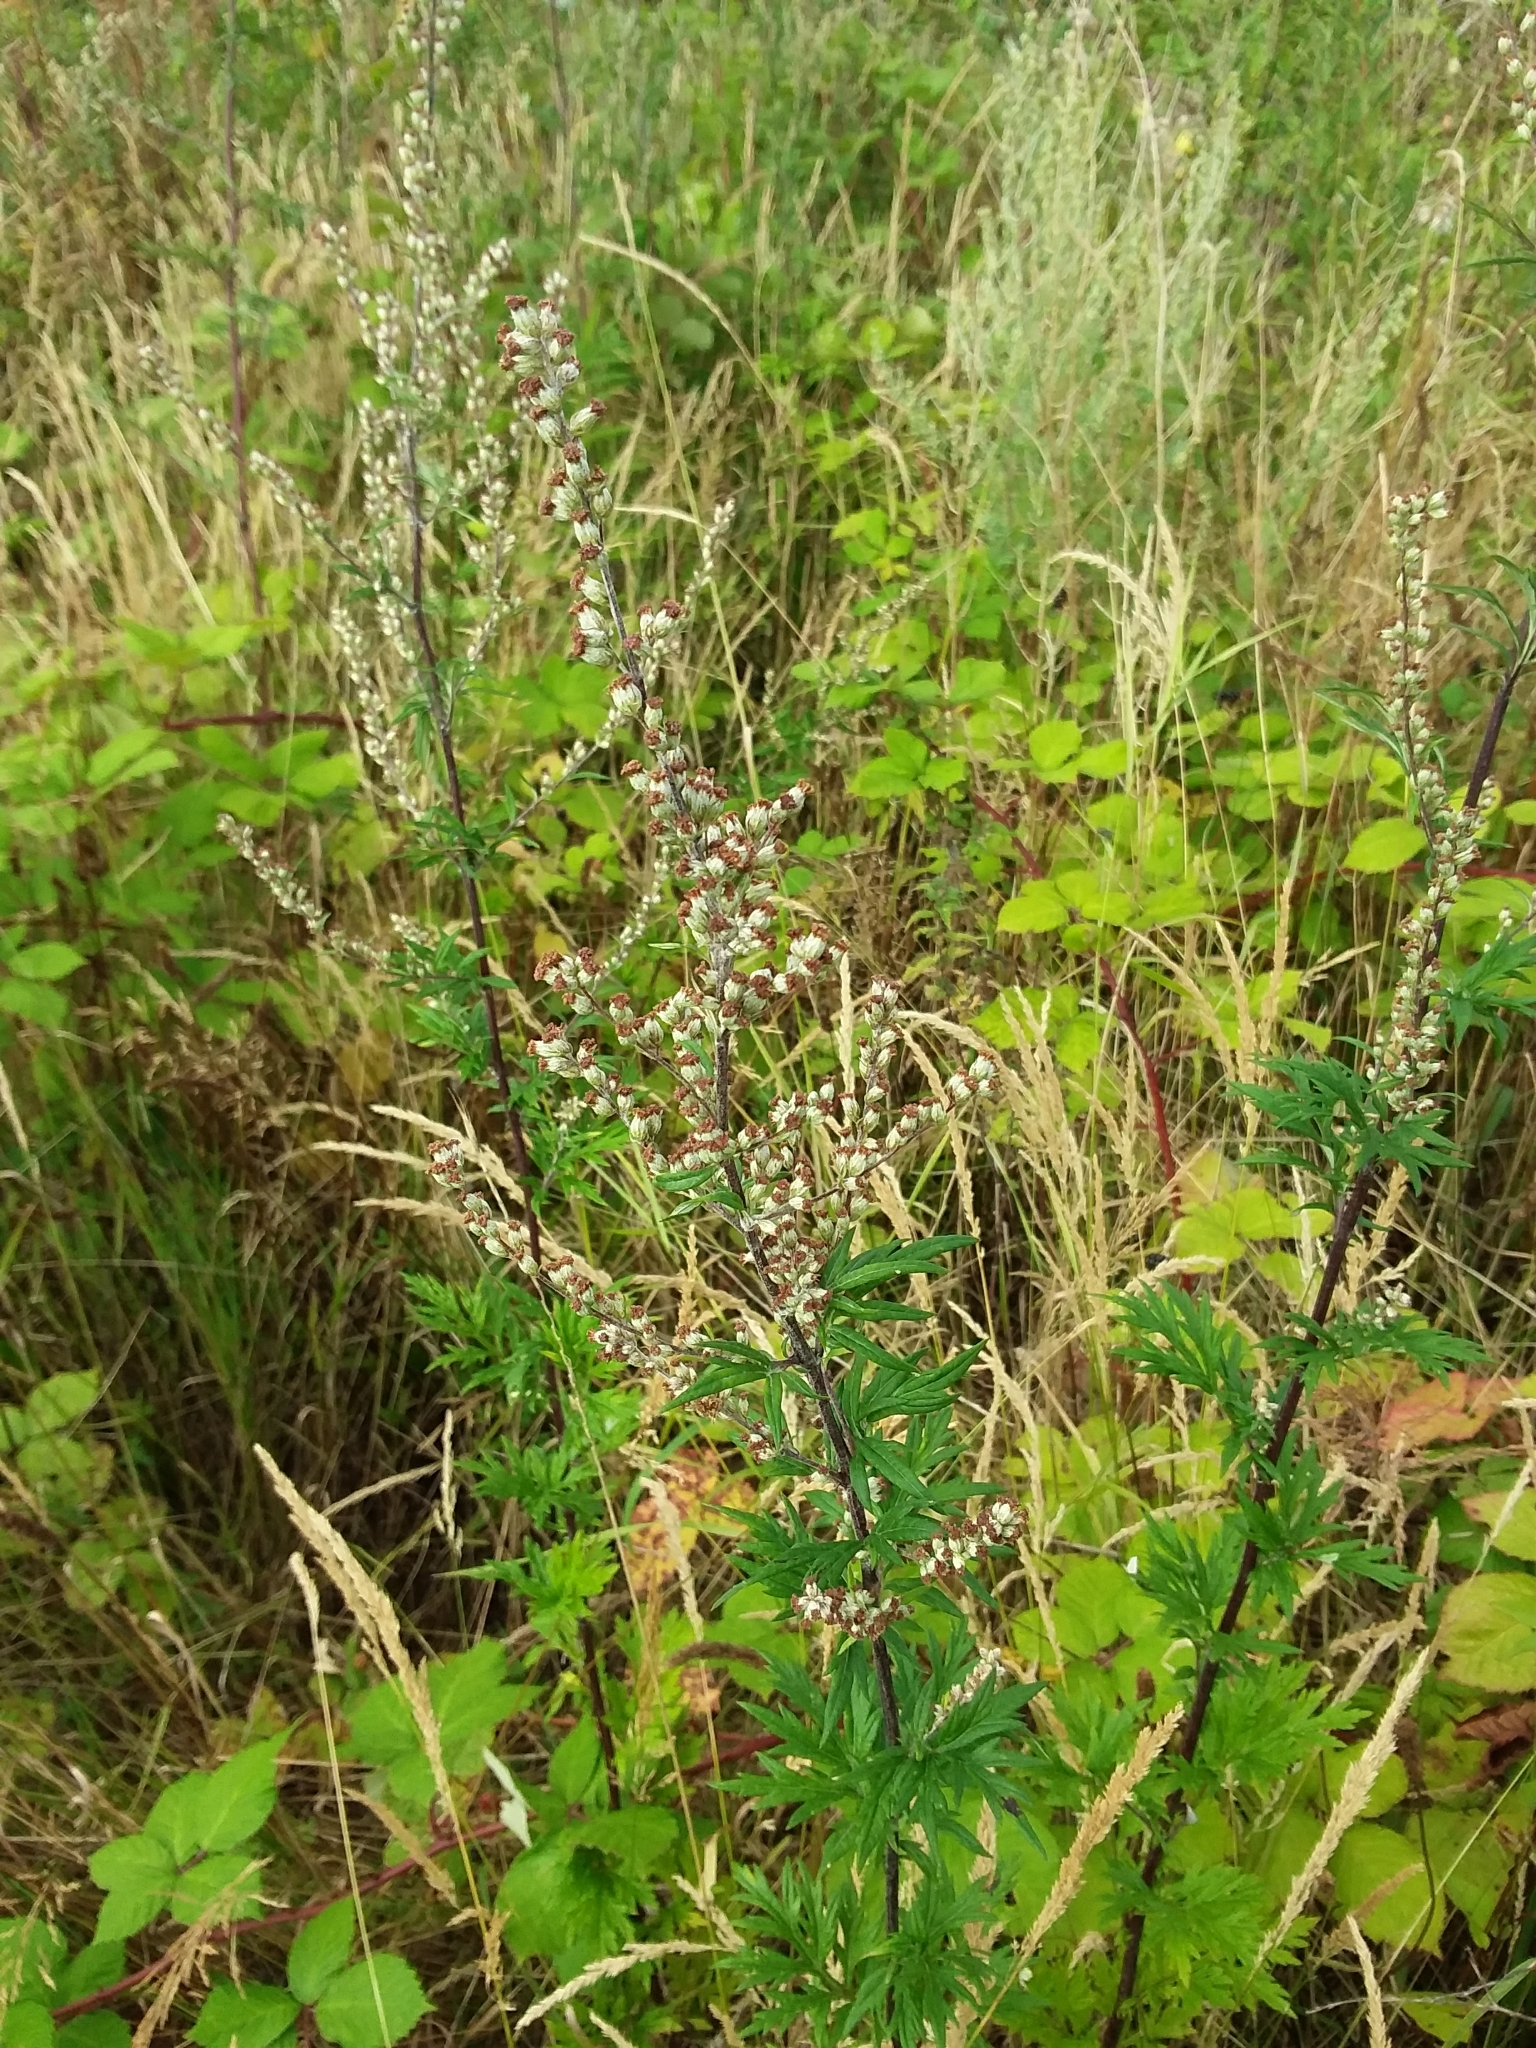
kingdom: Plantae
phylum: Tracheophyta
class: Magnoliopsida
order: Asterales
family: Asteraceae
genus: Artemisia
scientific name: Artemisia vulgaris
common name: Mugwort
